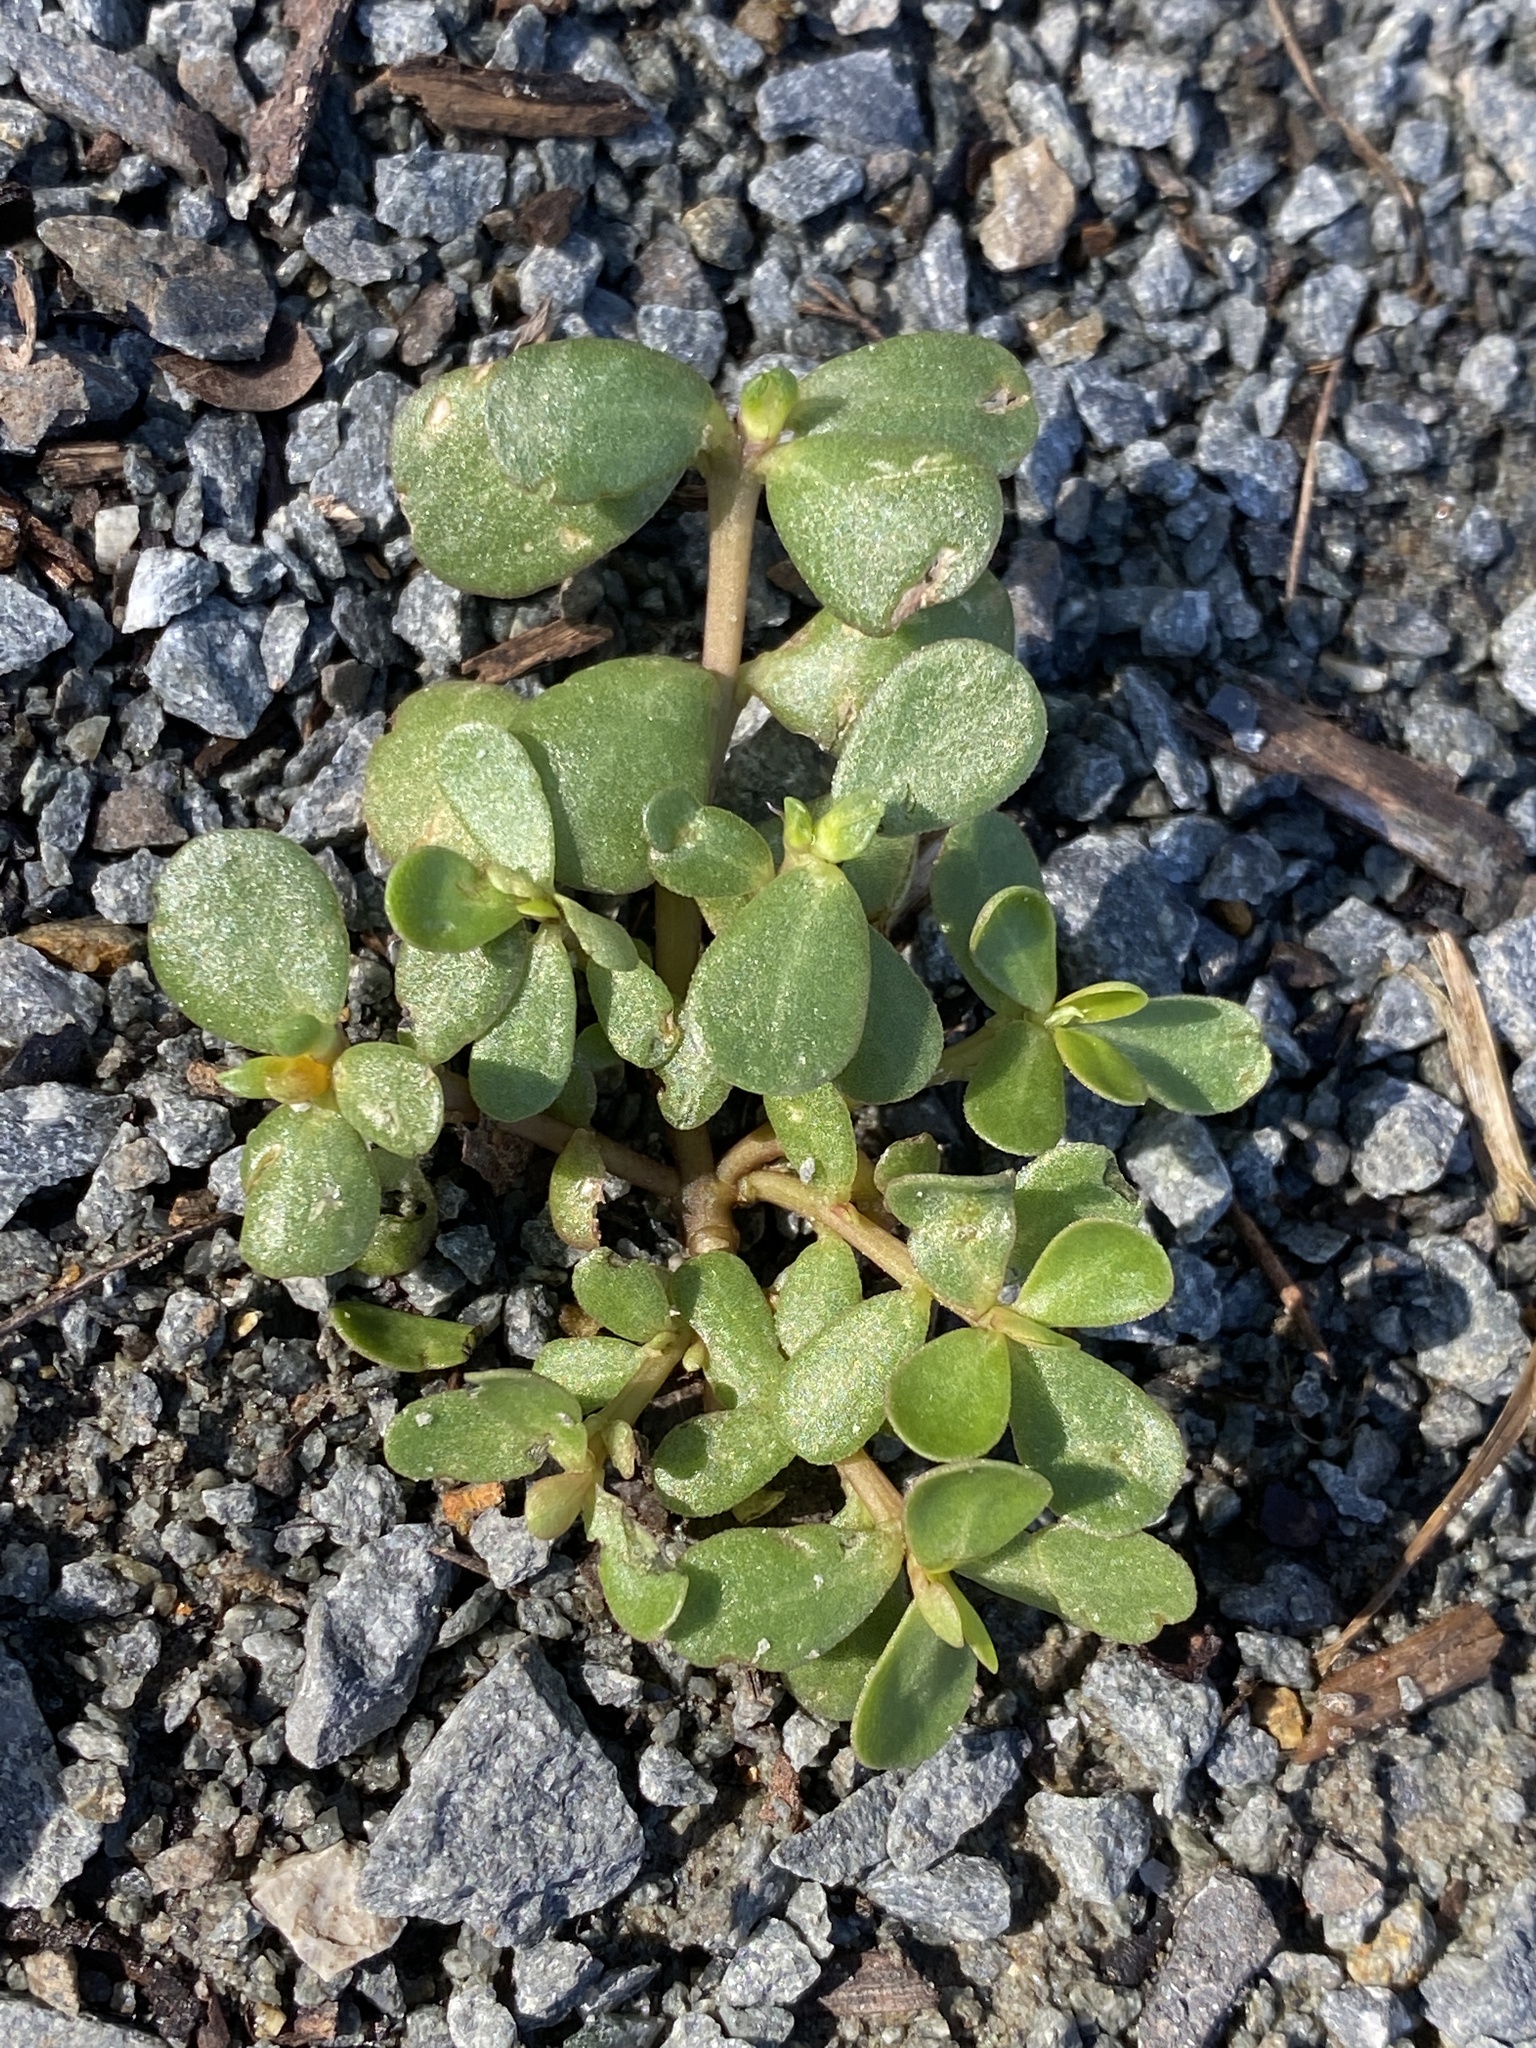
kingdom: Plantae
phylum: Tracheophyta
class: Magnoliopsida
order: Caryophyllales
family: Portulacaceae
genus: Portulaca
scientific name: Portulaca oleracea
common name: Common purslane
